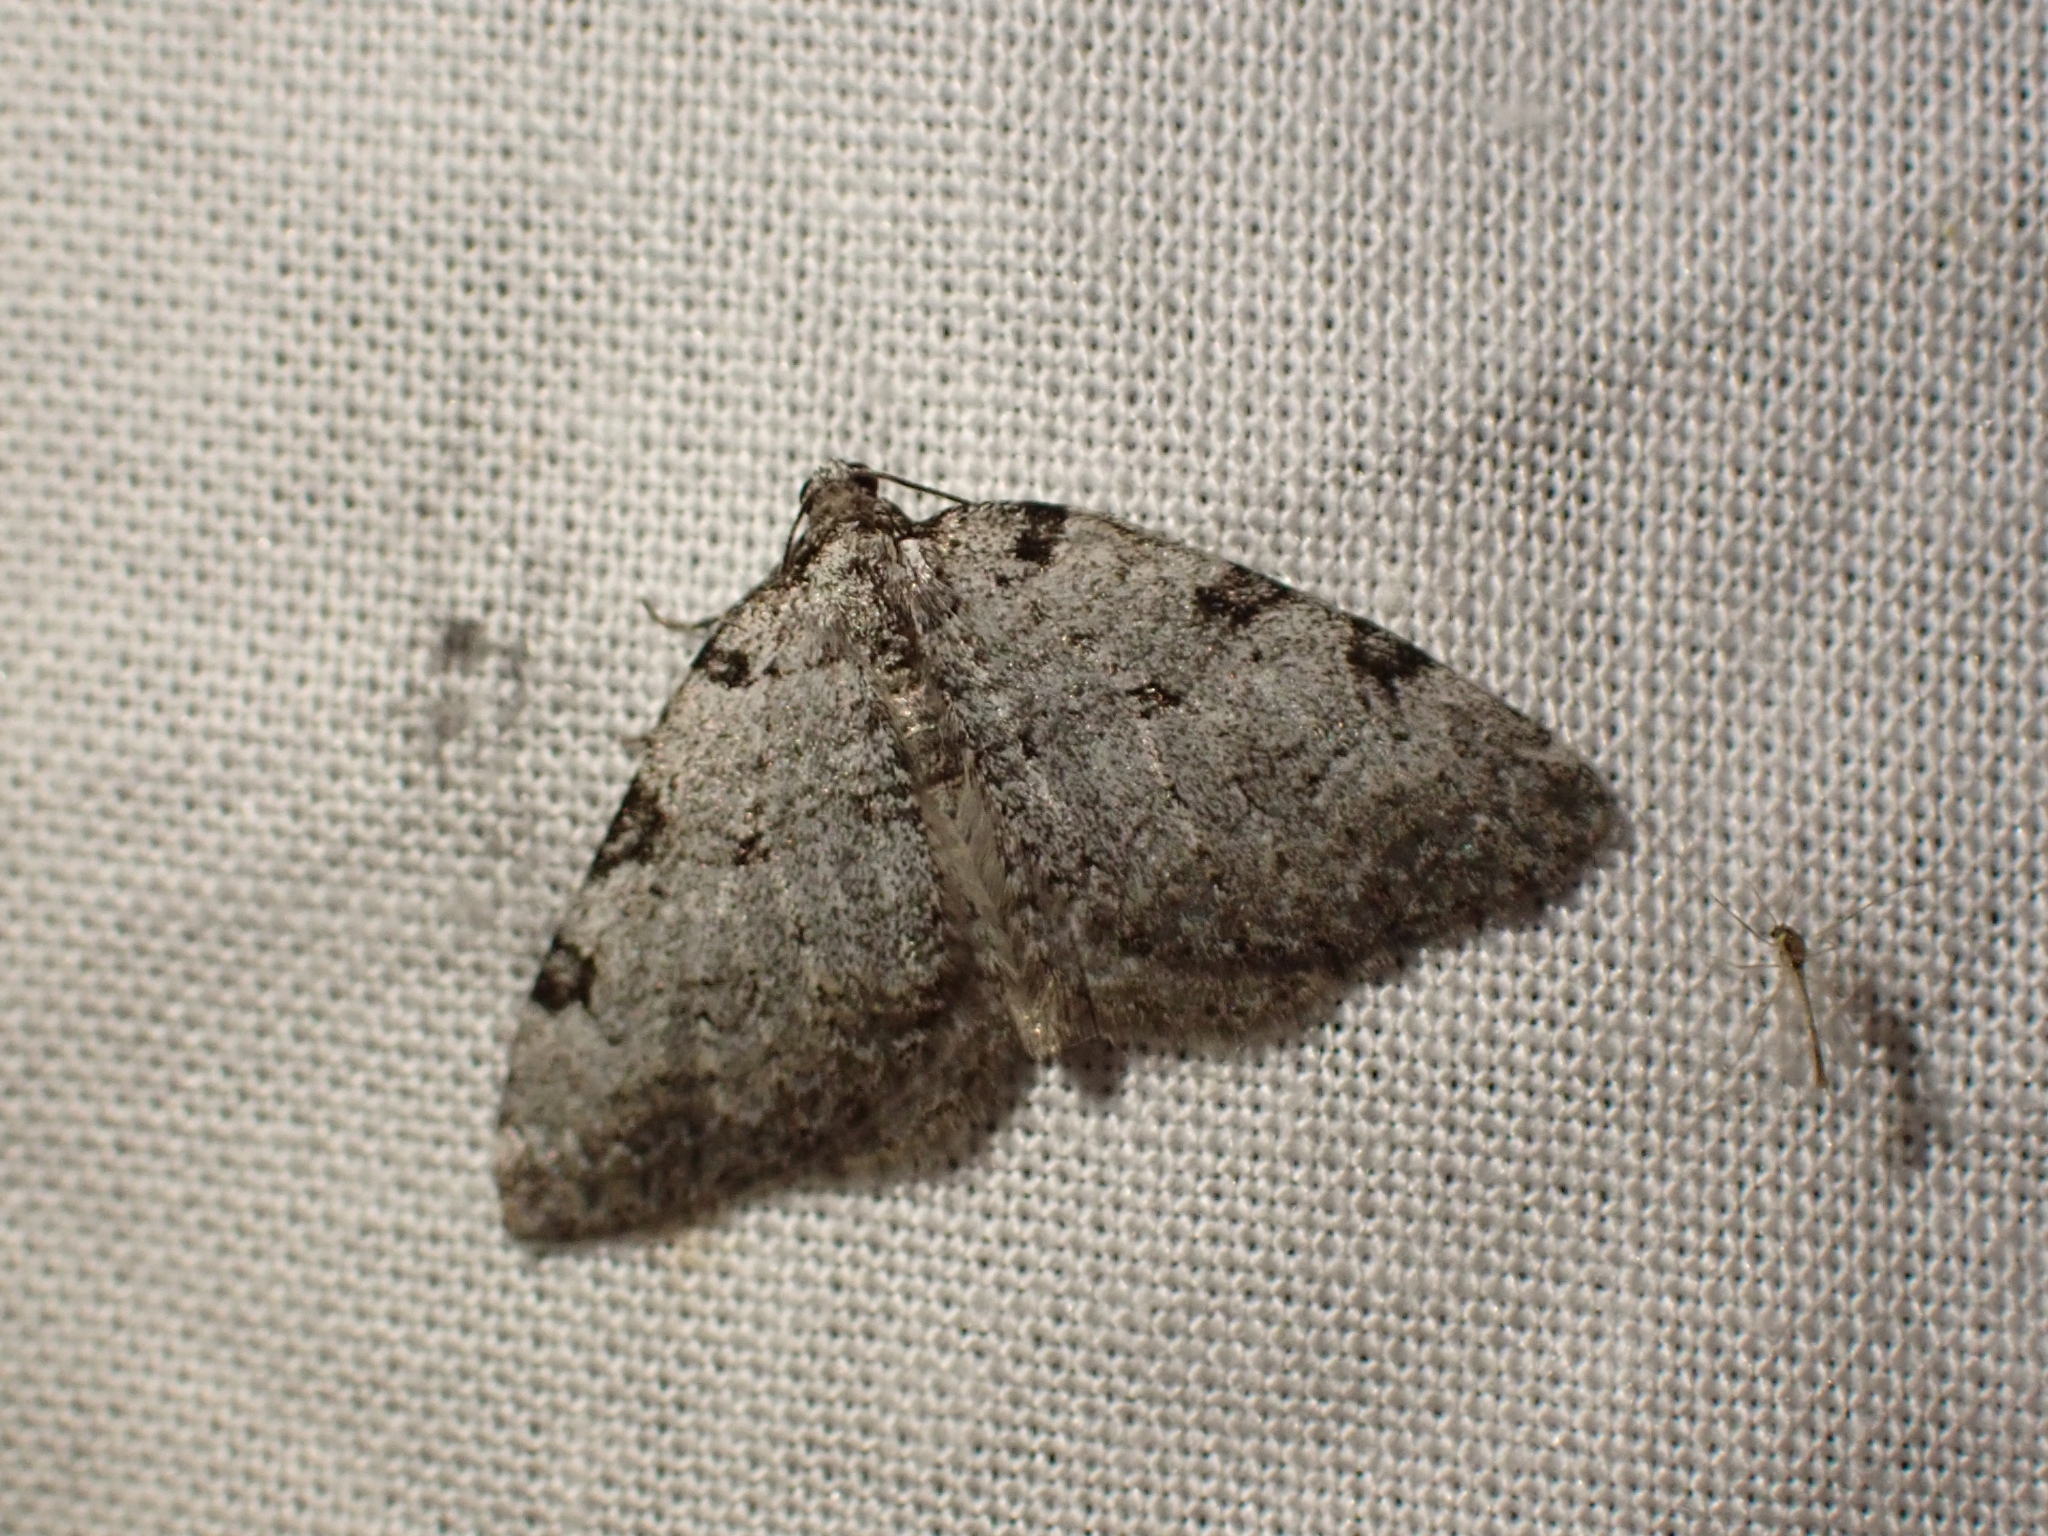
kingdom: Animalia
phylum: Arthropoda
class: Insecta
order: Lepidoptera
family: Geometridae
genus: Perizoma
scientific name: Perizoma costiguttata
